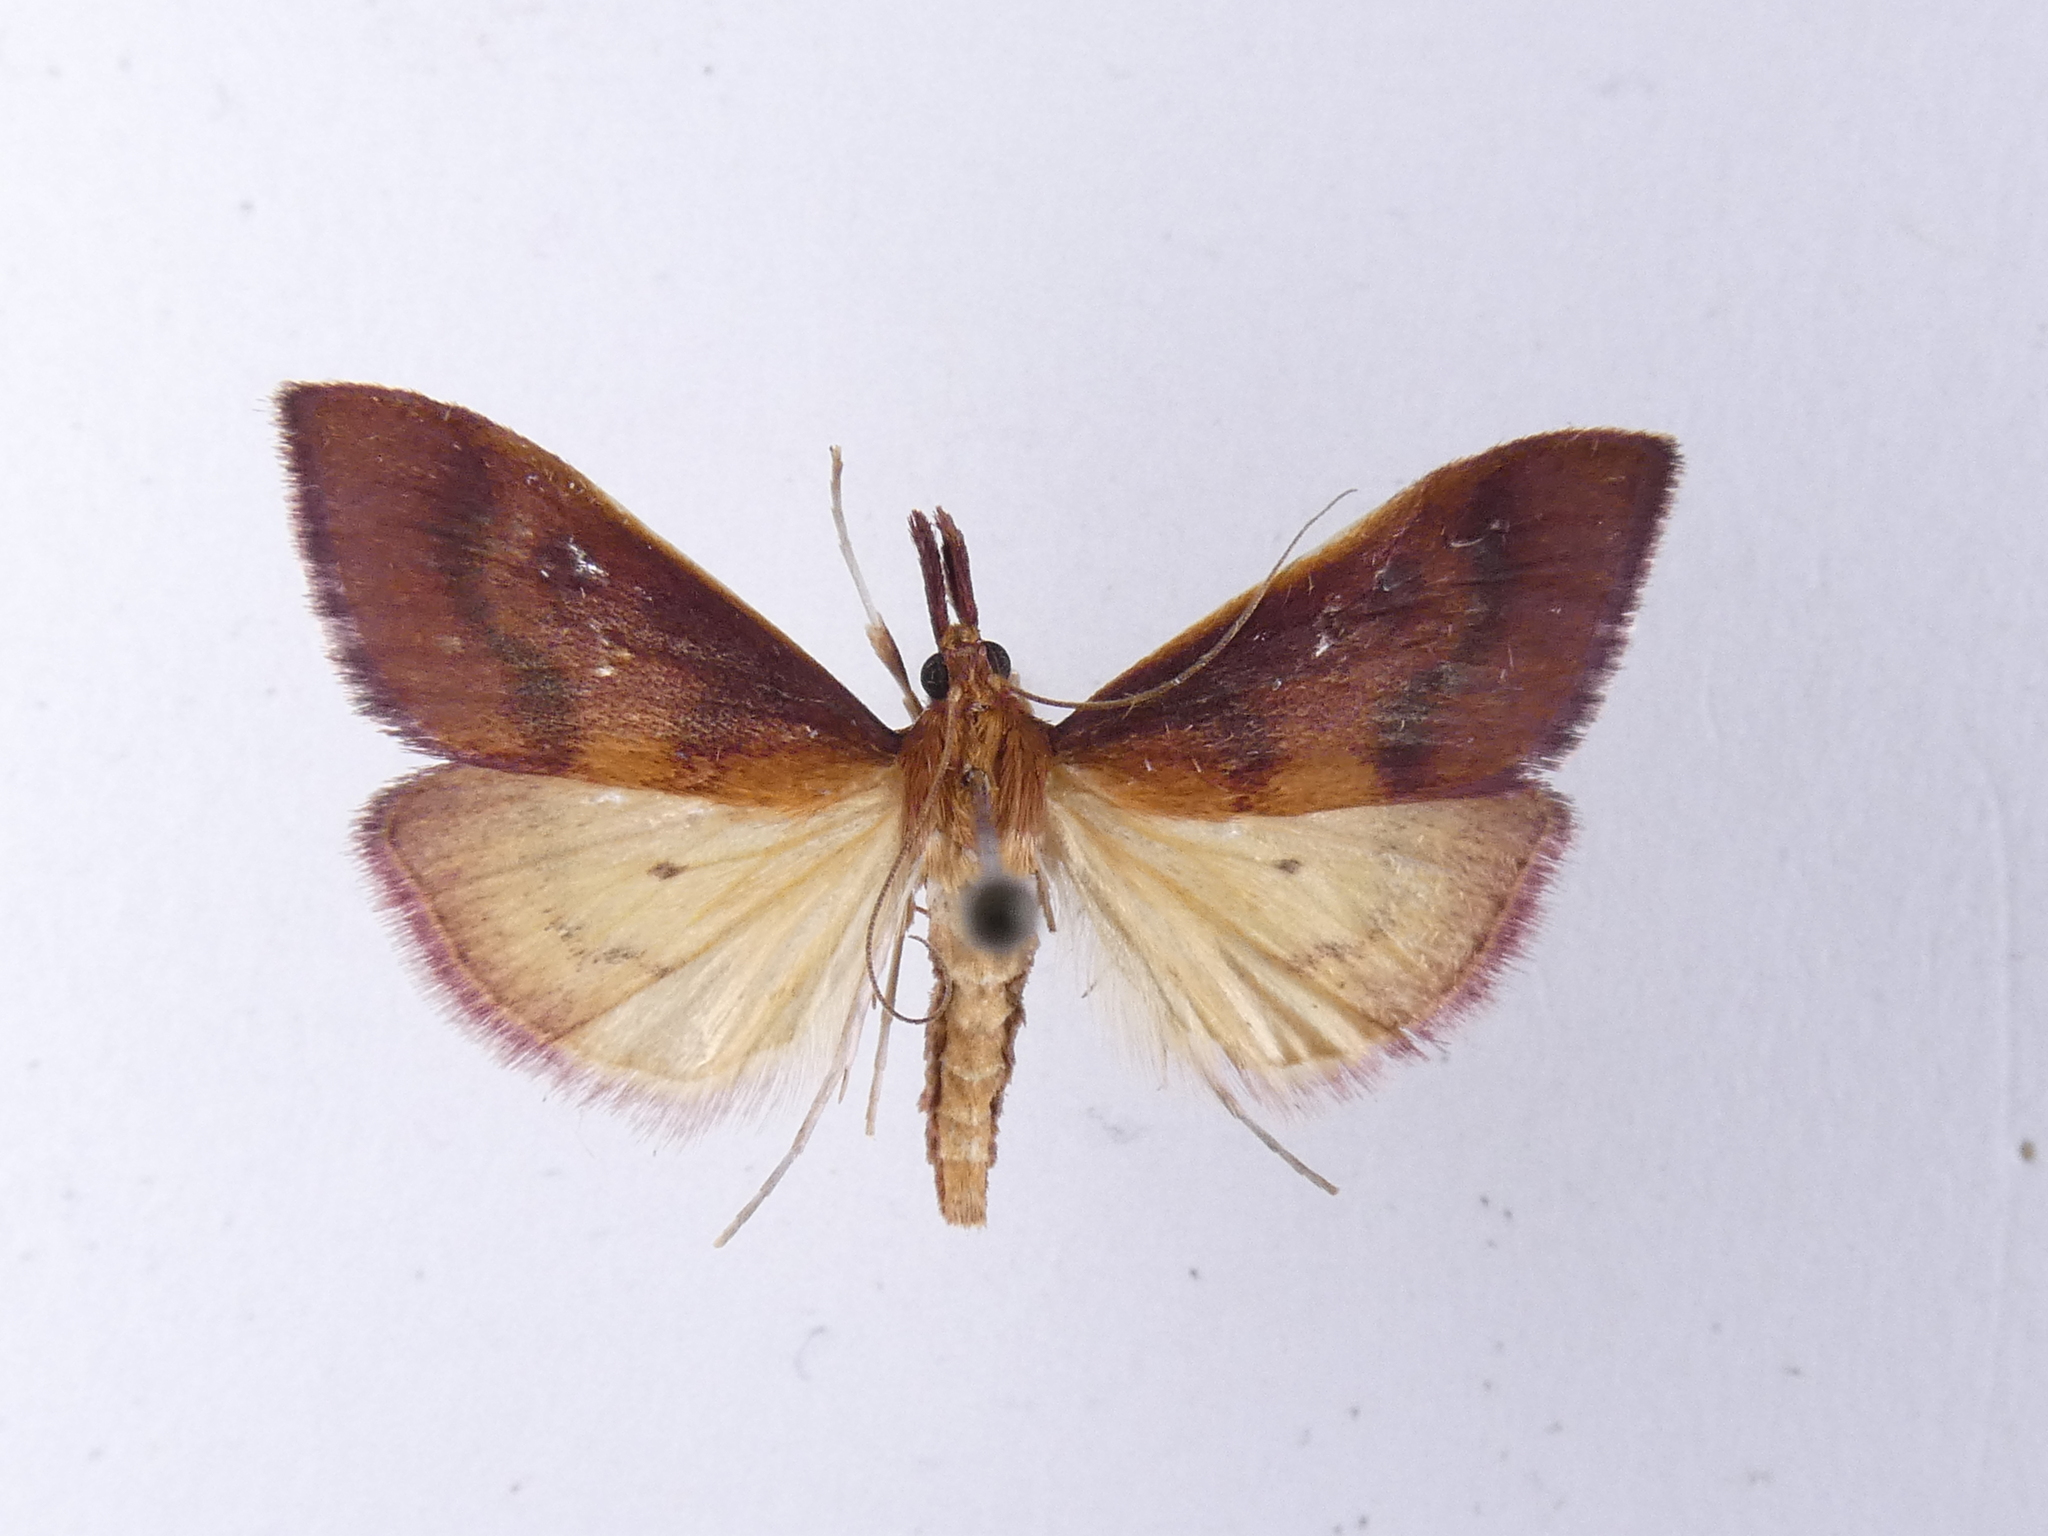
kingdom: Animalia
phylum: Arthropoda
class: Insecta
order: Lepidoptera
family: Crambidae
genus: Udea
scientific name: Udea daiclesalis
